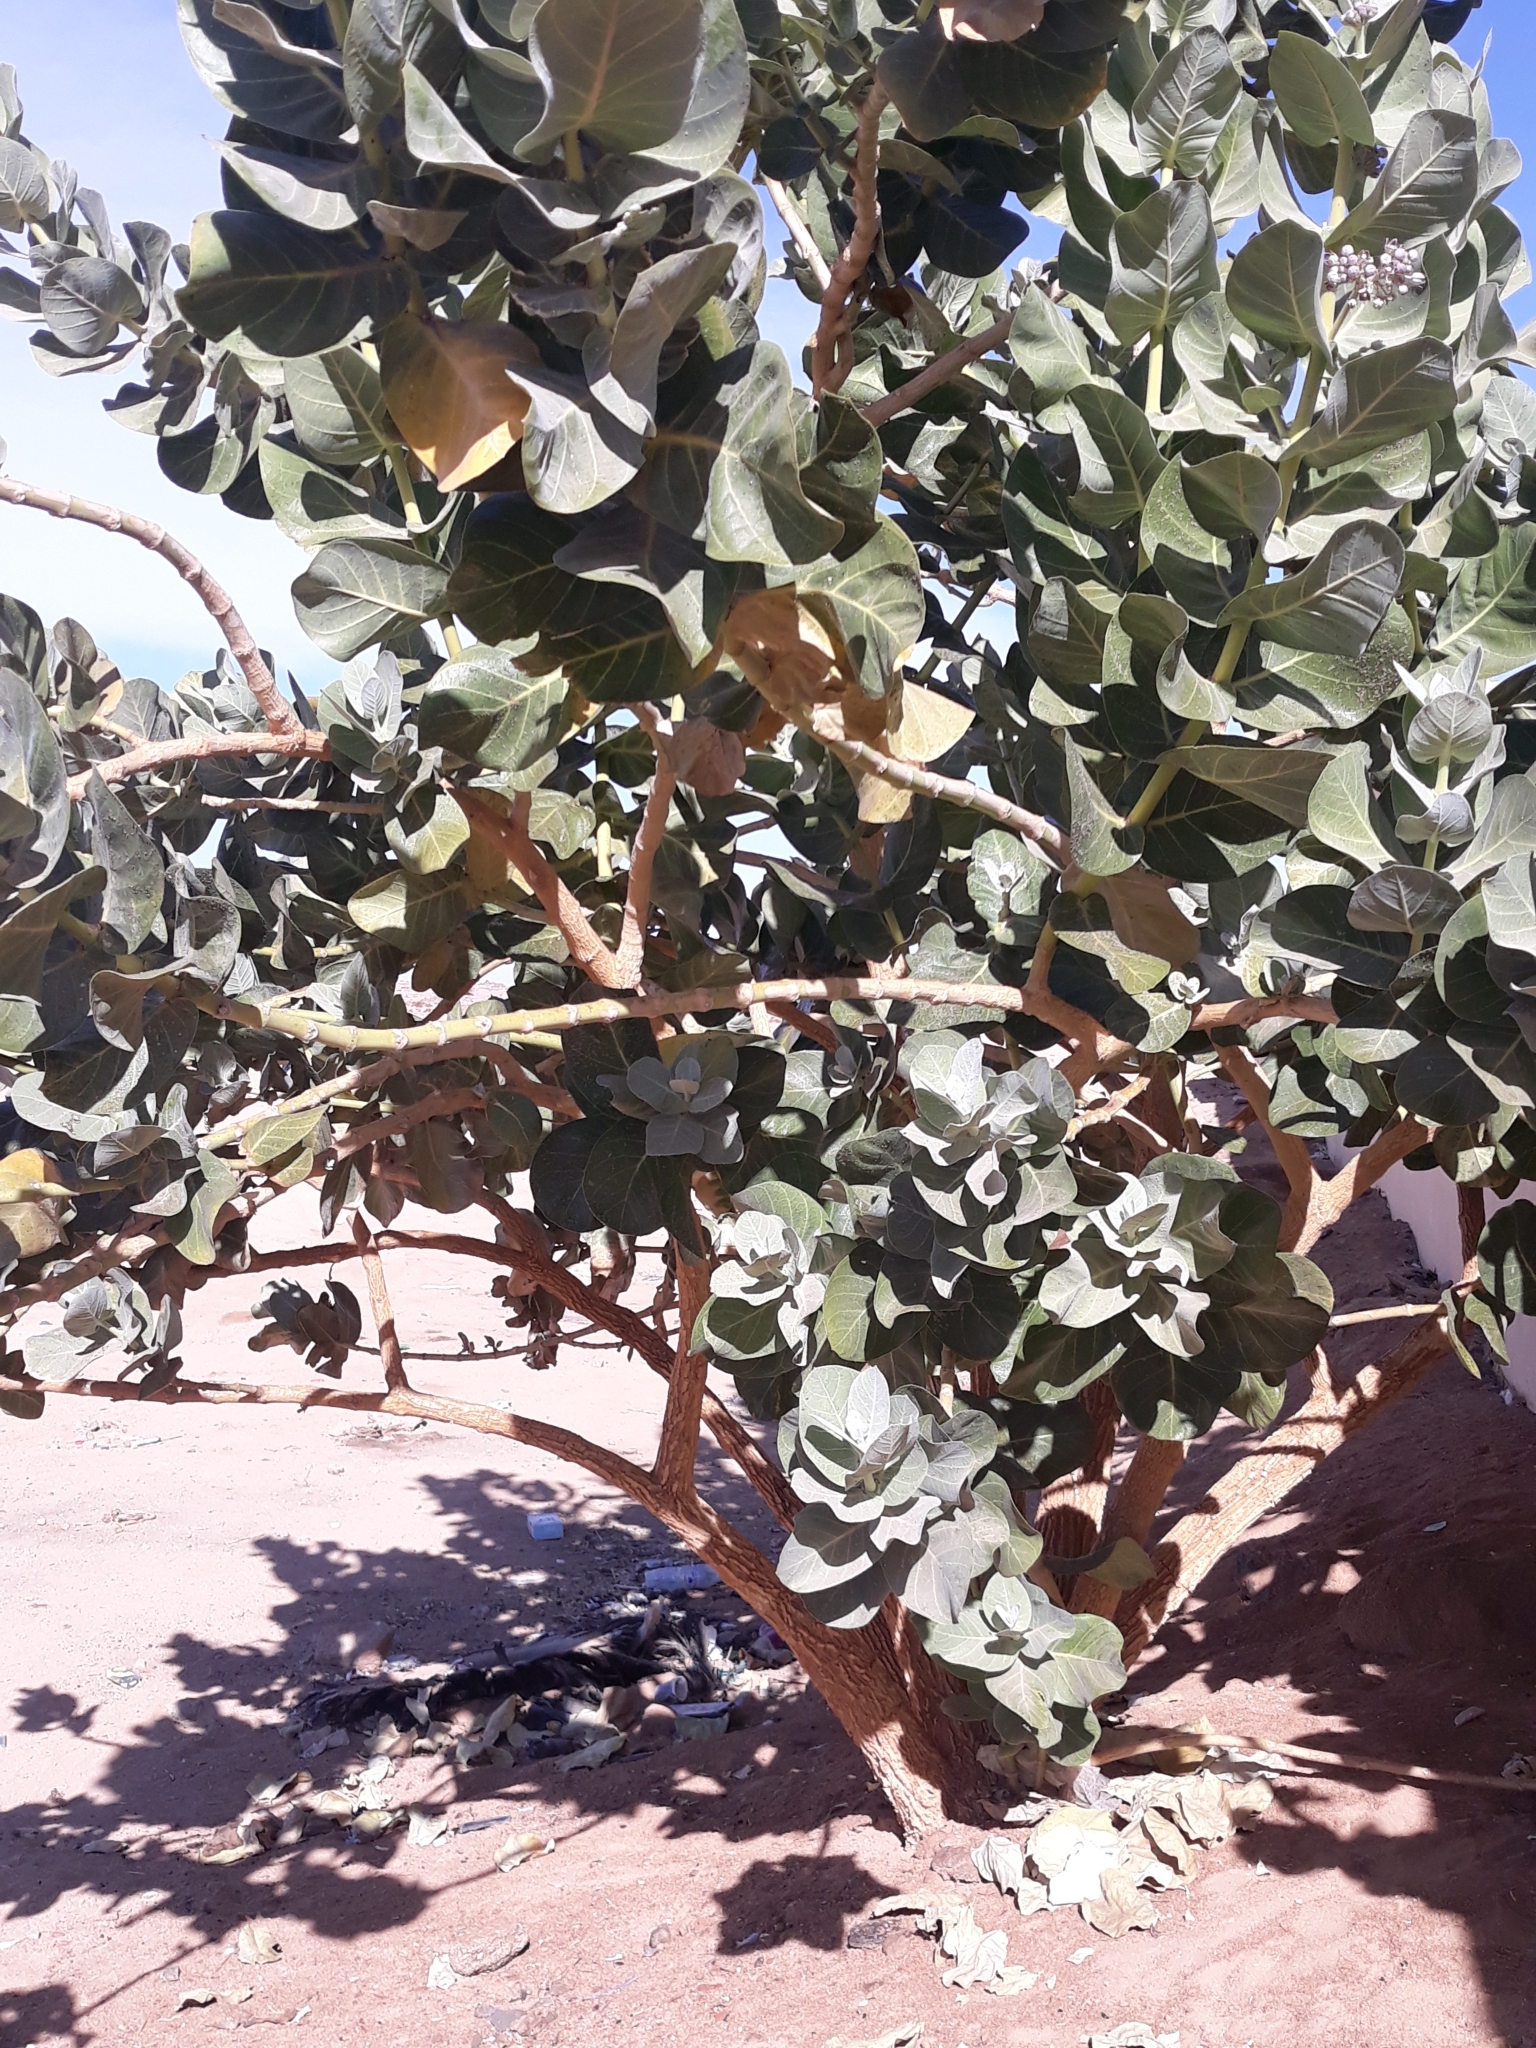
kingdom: Plantae
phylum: Tracheophyta
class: Magnoliopsida
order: Gentianales
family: Apocynaceae
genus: Calotropis
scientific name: Calotropis procera
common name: Roostertree
